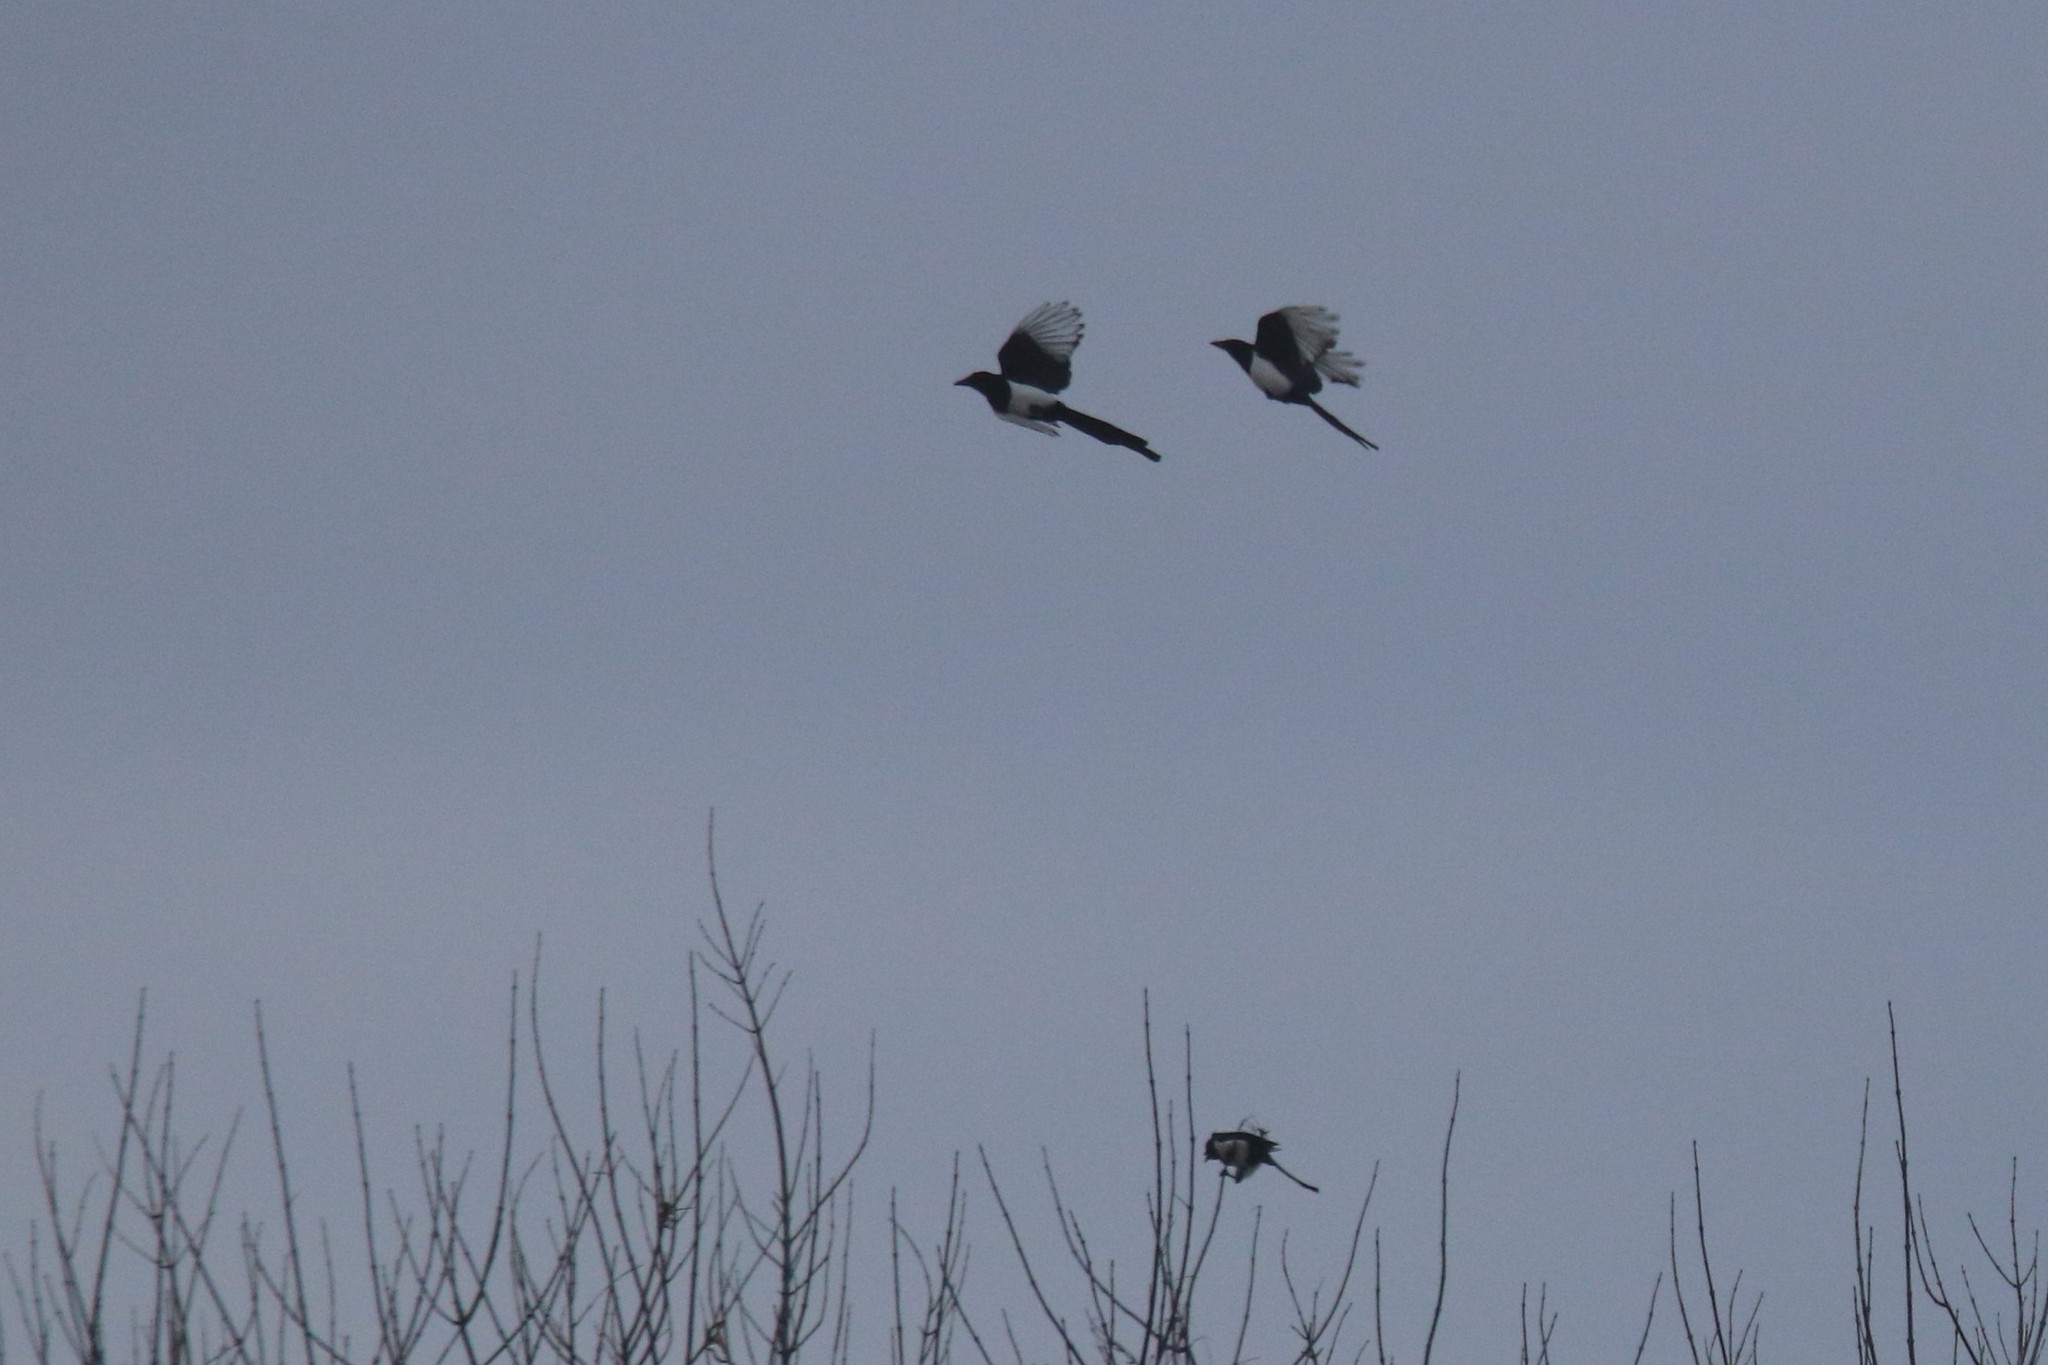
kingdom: Animalia
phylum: Chordata
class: Aves
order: Passeriformes
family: Corvidae
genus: Pica
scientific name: Pica pica
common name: Eurasian magpie
